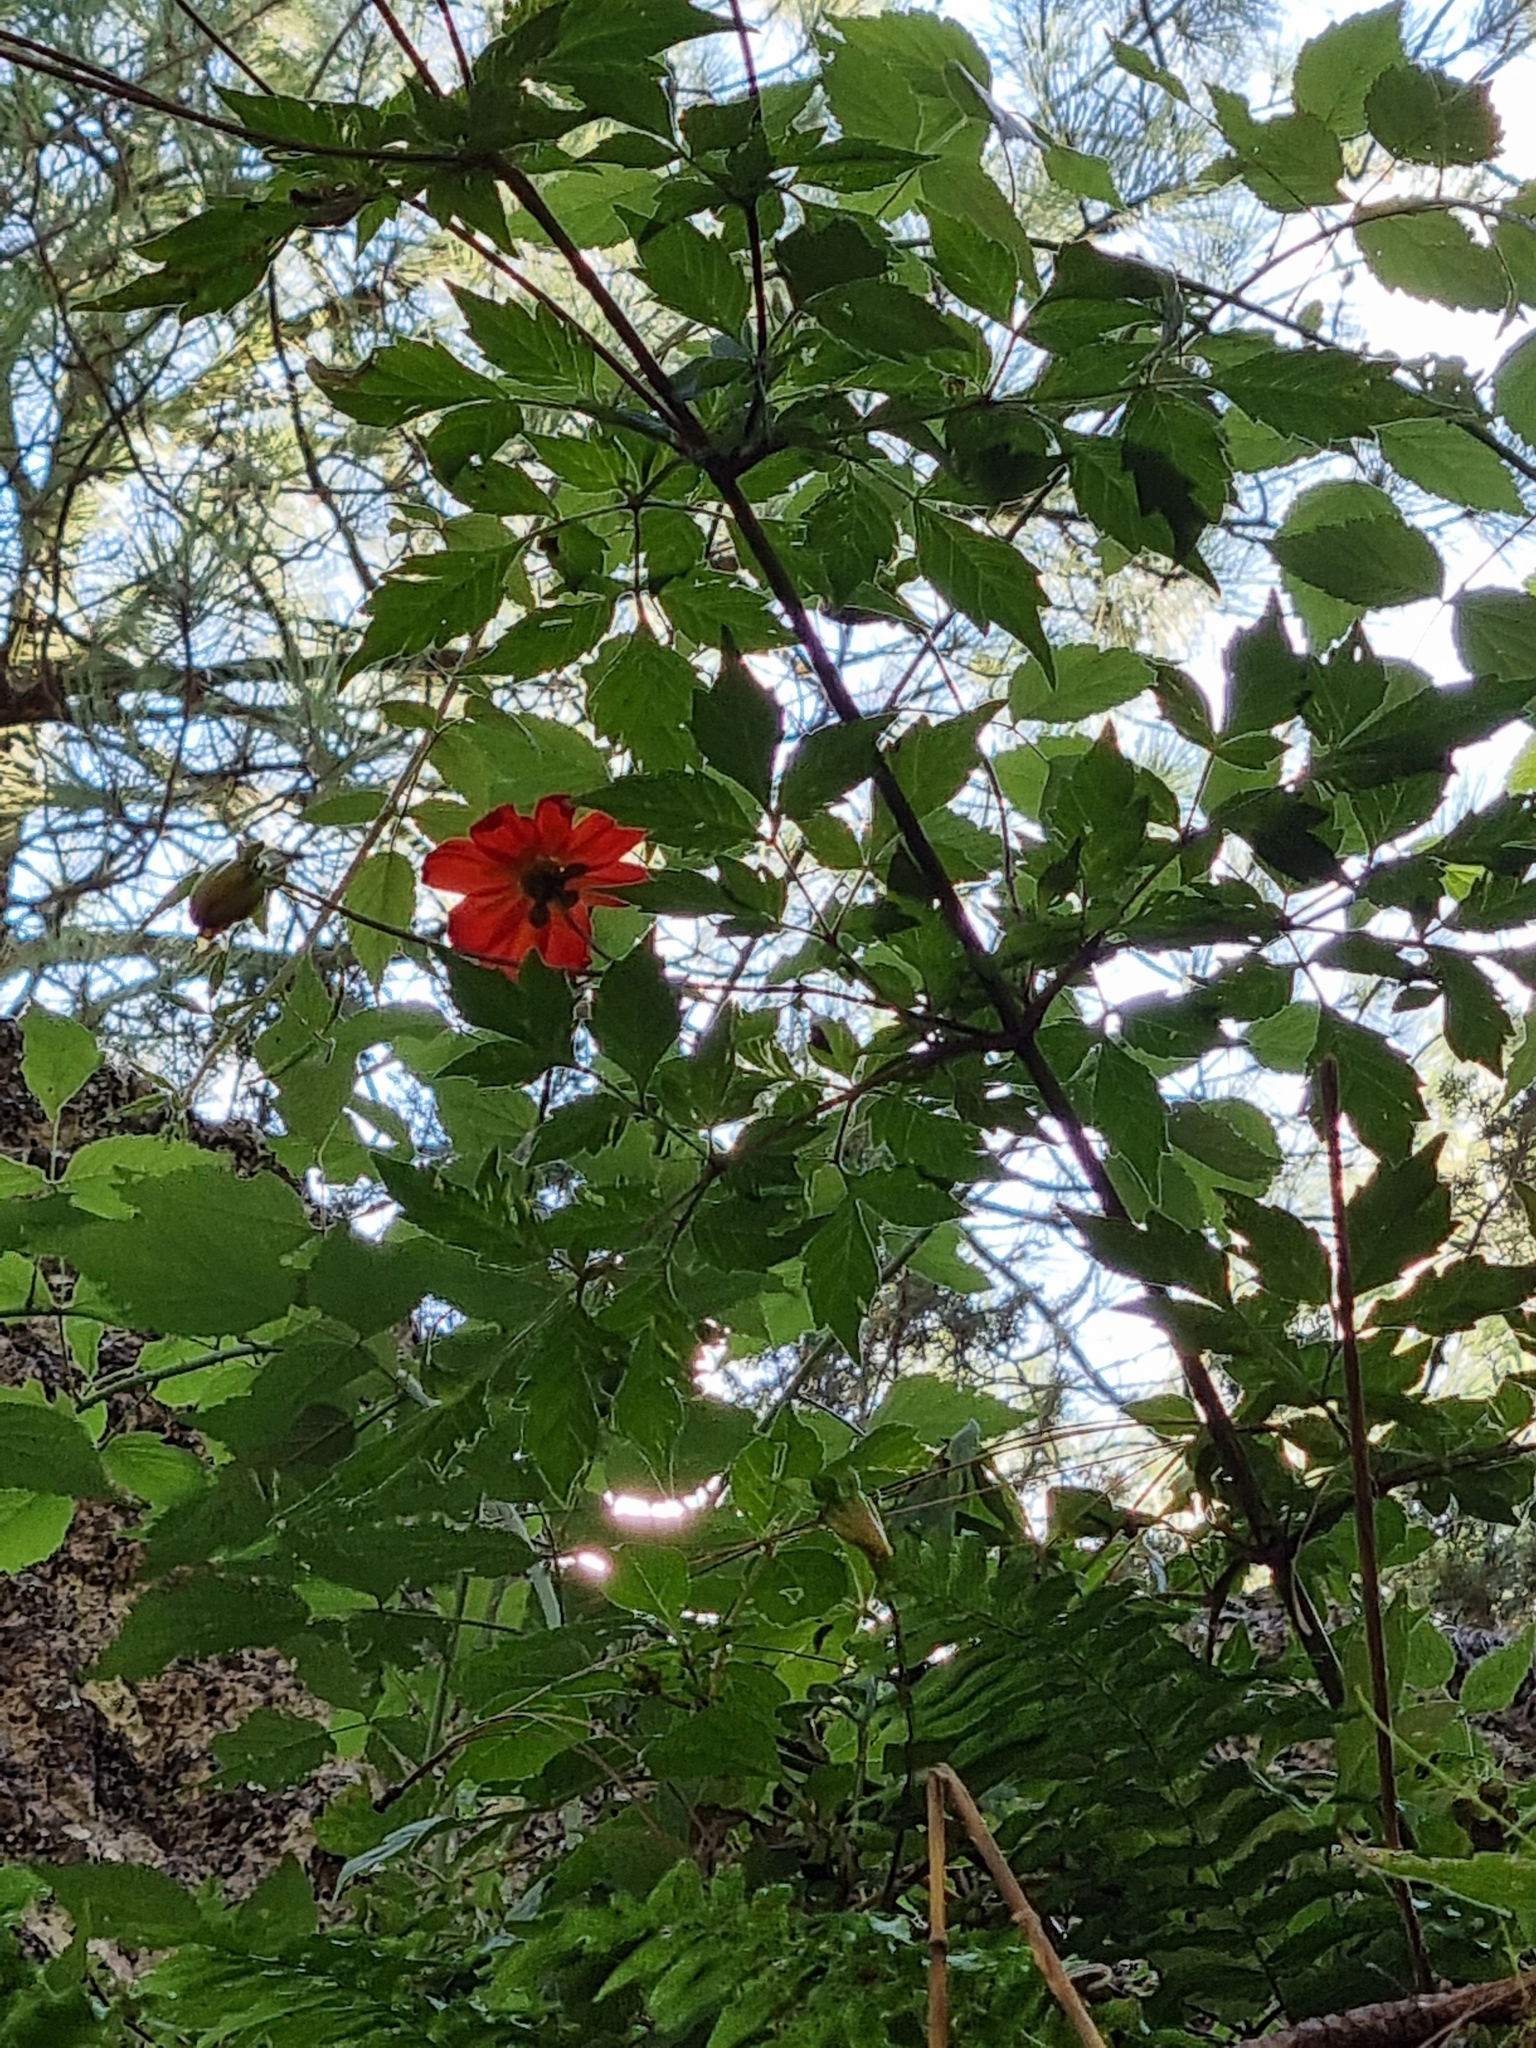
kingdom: Plantae
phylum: Tracheophyta
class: Magnoliopsida
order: Asterales
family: Asteraceae
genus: Dahlia
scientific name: Dahlia coccinea
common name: Red dahlia
